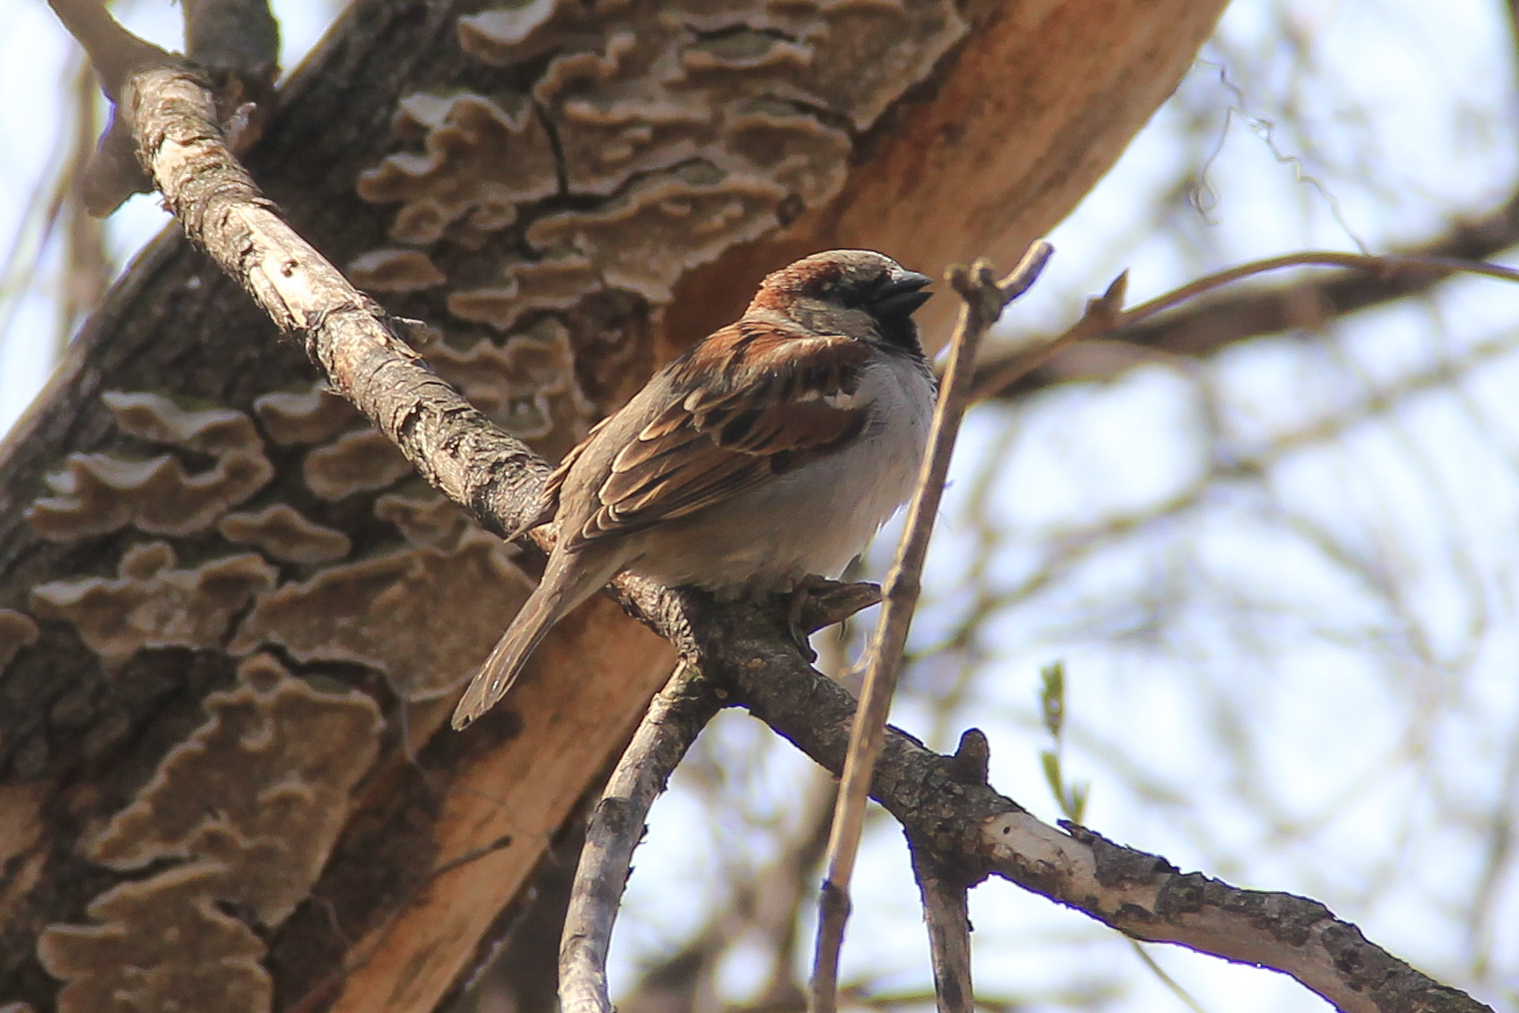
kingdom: Animalia
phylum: Chordata
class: Aves
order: Passeriformes
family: Passeridae
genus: Passer
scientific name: Passer domesticus
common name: House sparrow
